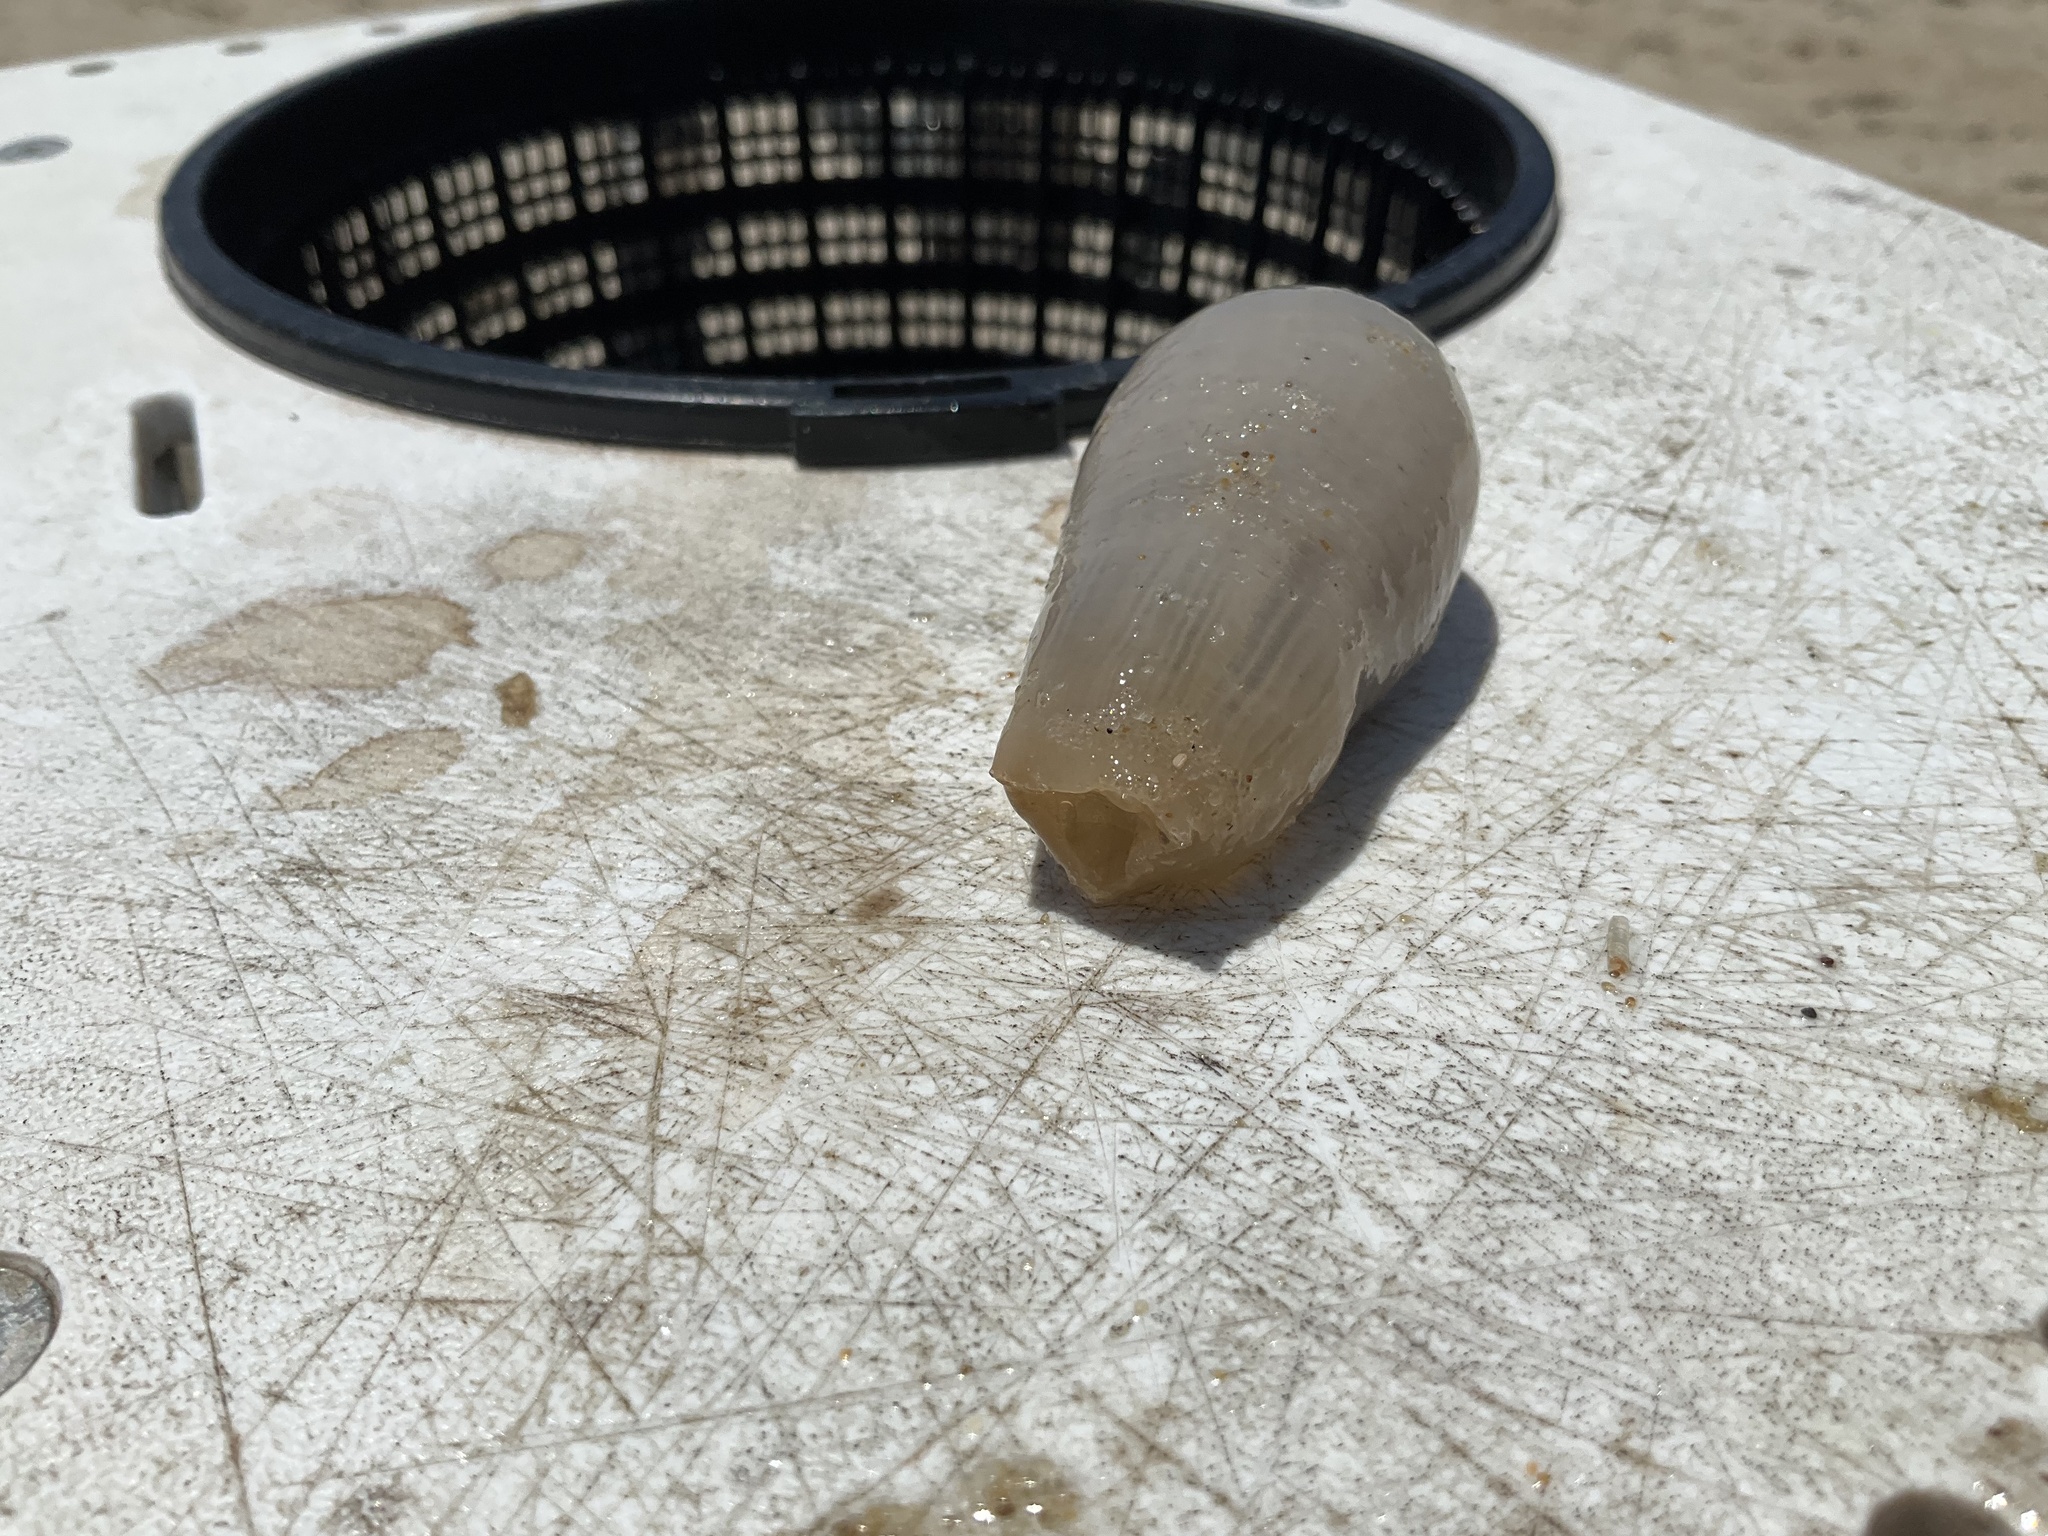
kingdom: Animalia
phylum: Cnidaria
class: Anthozoa
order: Actiniaria
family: Actinostolidae
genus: Paranthus
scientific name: Paranthus rapiformis
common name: Sea onion
